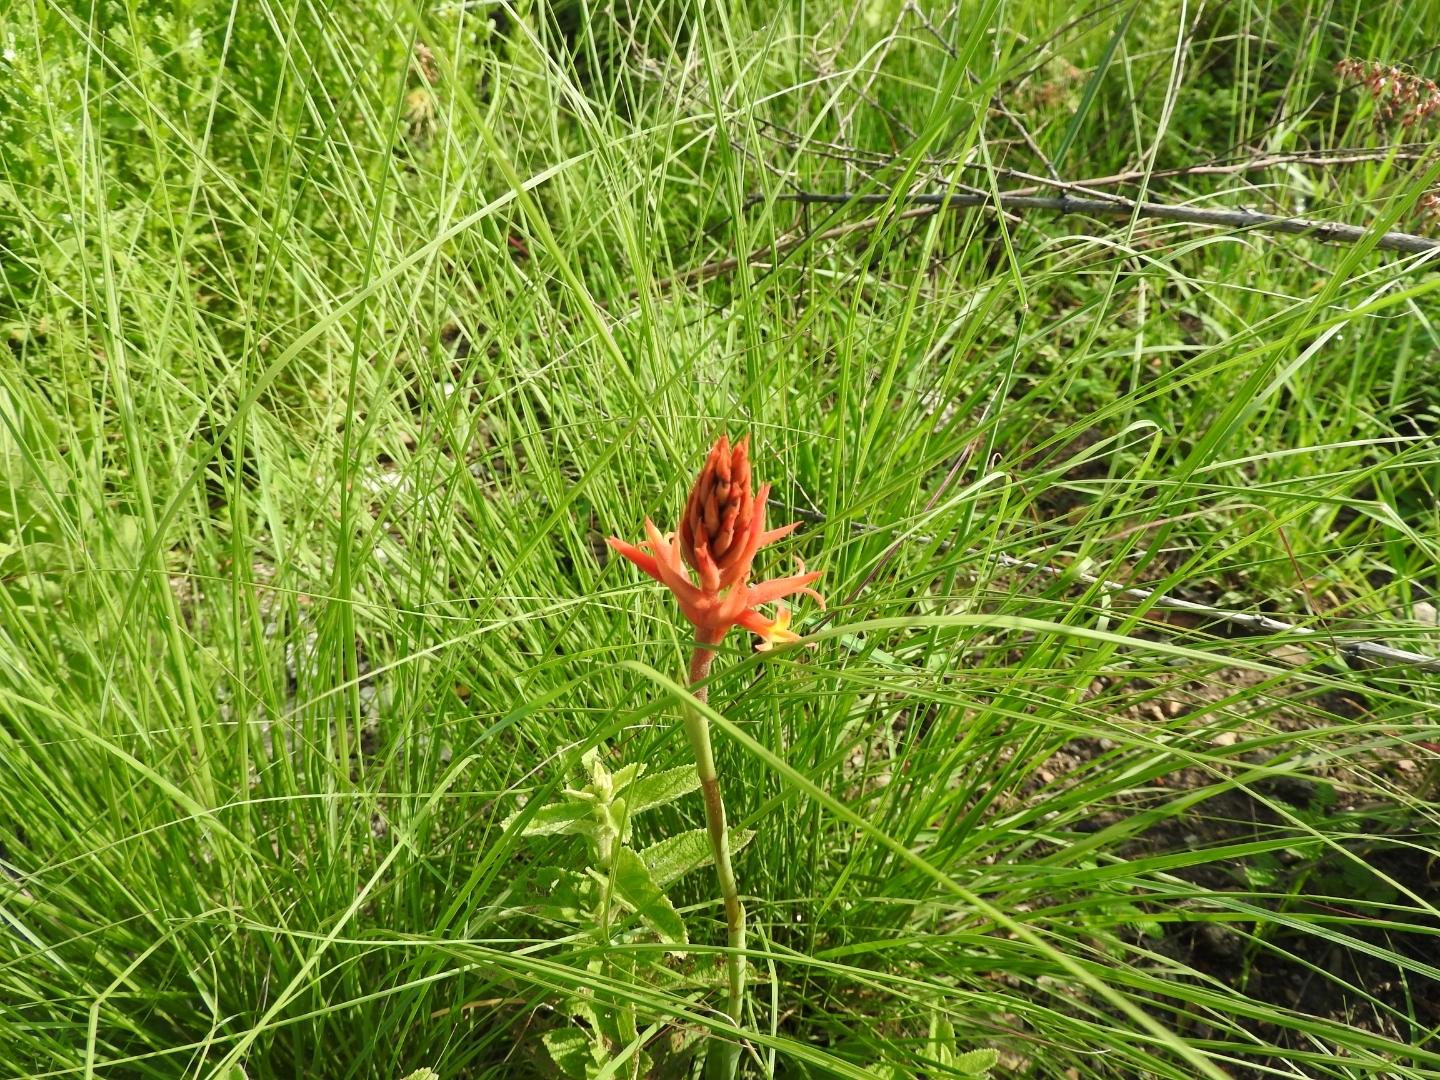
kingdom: Plantae
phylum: Tracheophyta
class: Liliopsida
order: Asparagales
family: Orchidaceae
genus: Dichromanthus
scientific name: Dichromanthus cinnabarinus
